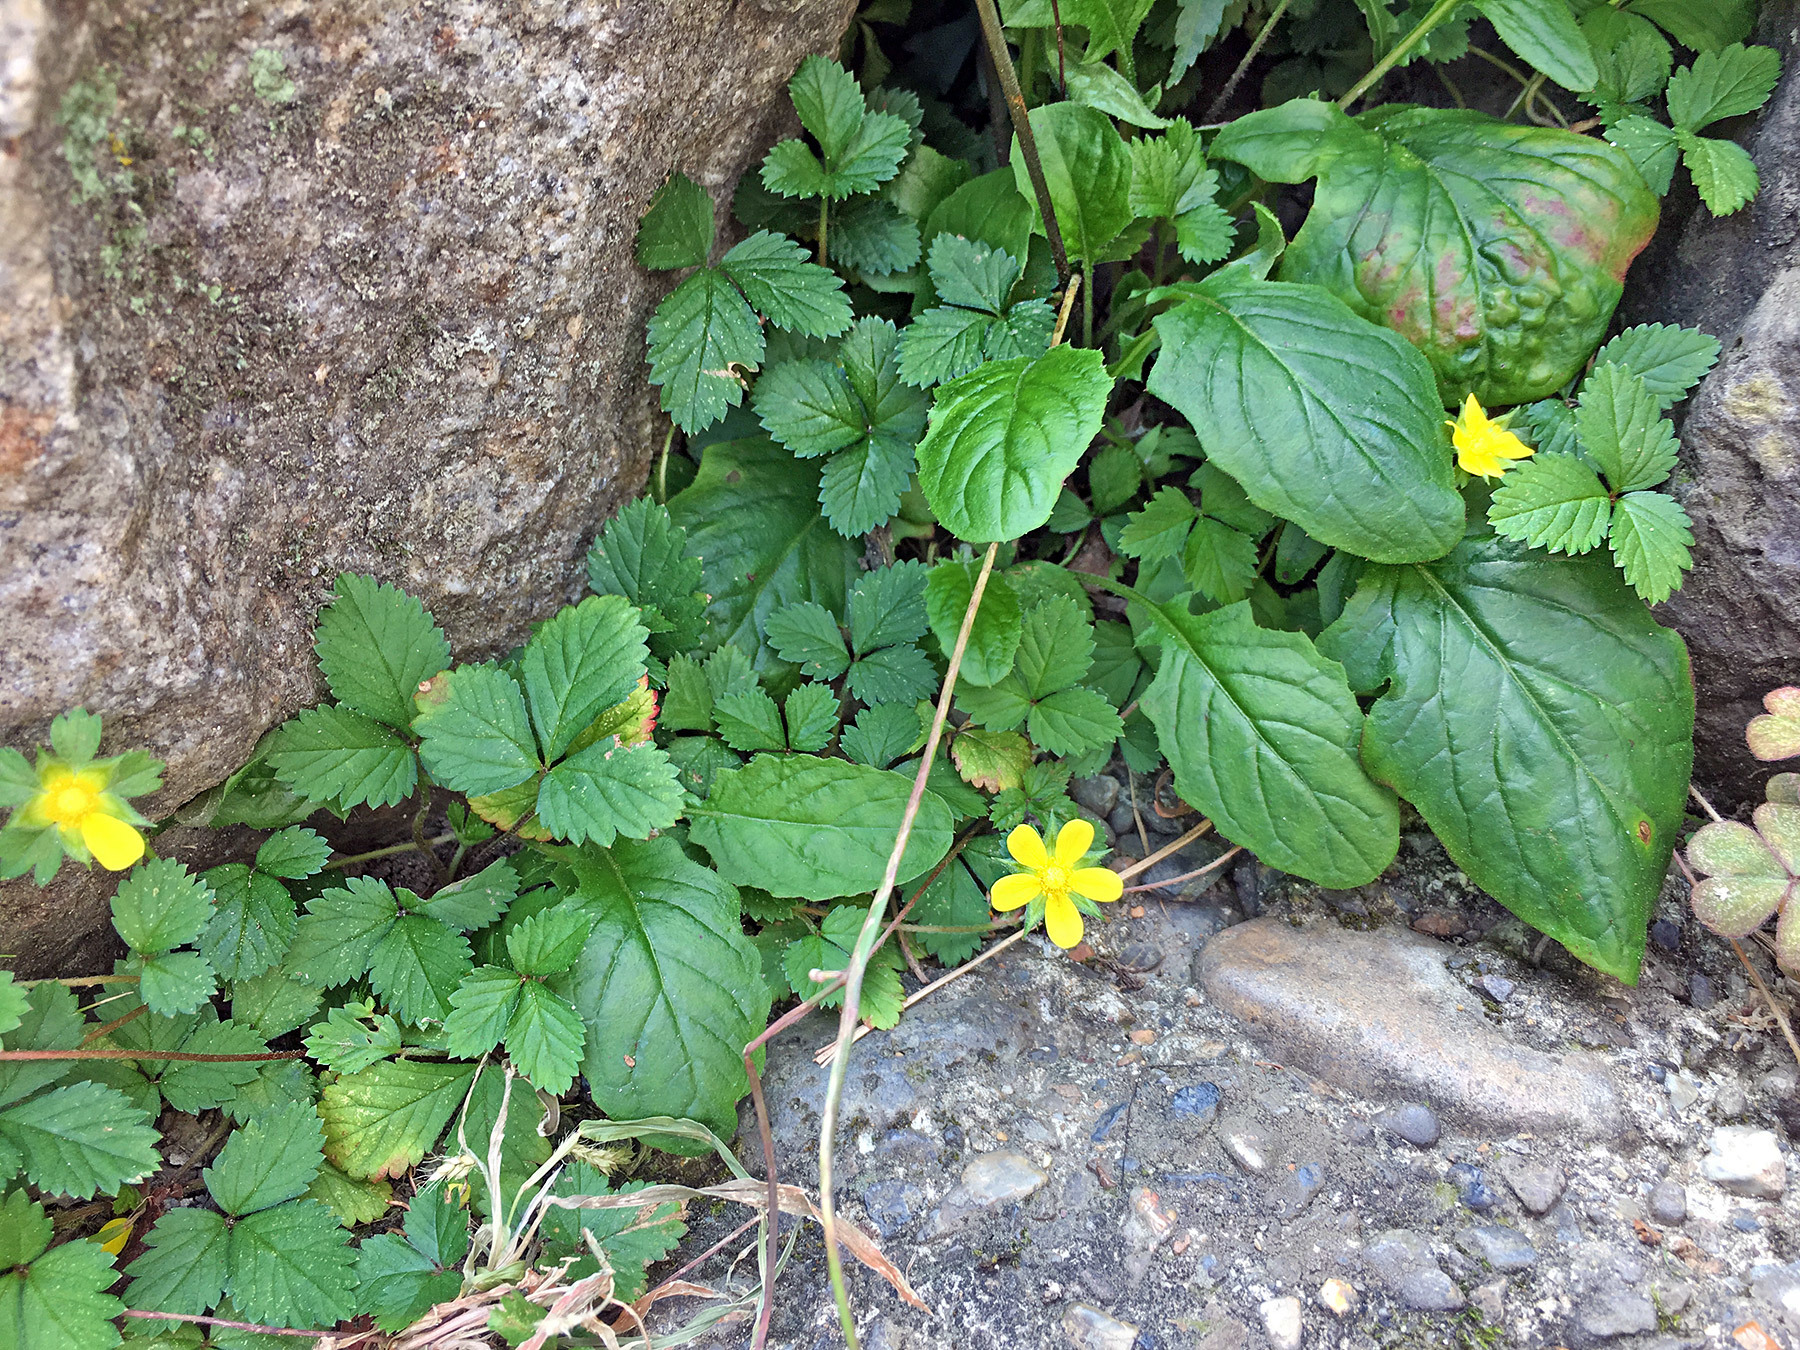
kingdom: Plantae
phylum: Tracheophyta
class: Magnoliopsida
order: Rosales
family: Rosaceae
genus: Potentilla
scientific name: Potentilla indica
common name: Yellow-flowered strawberry
